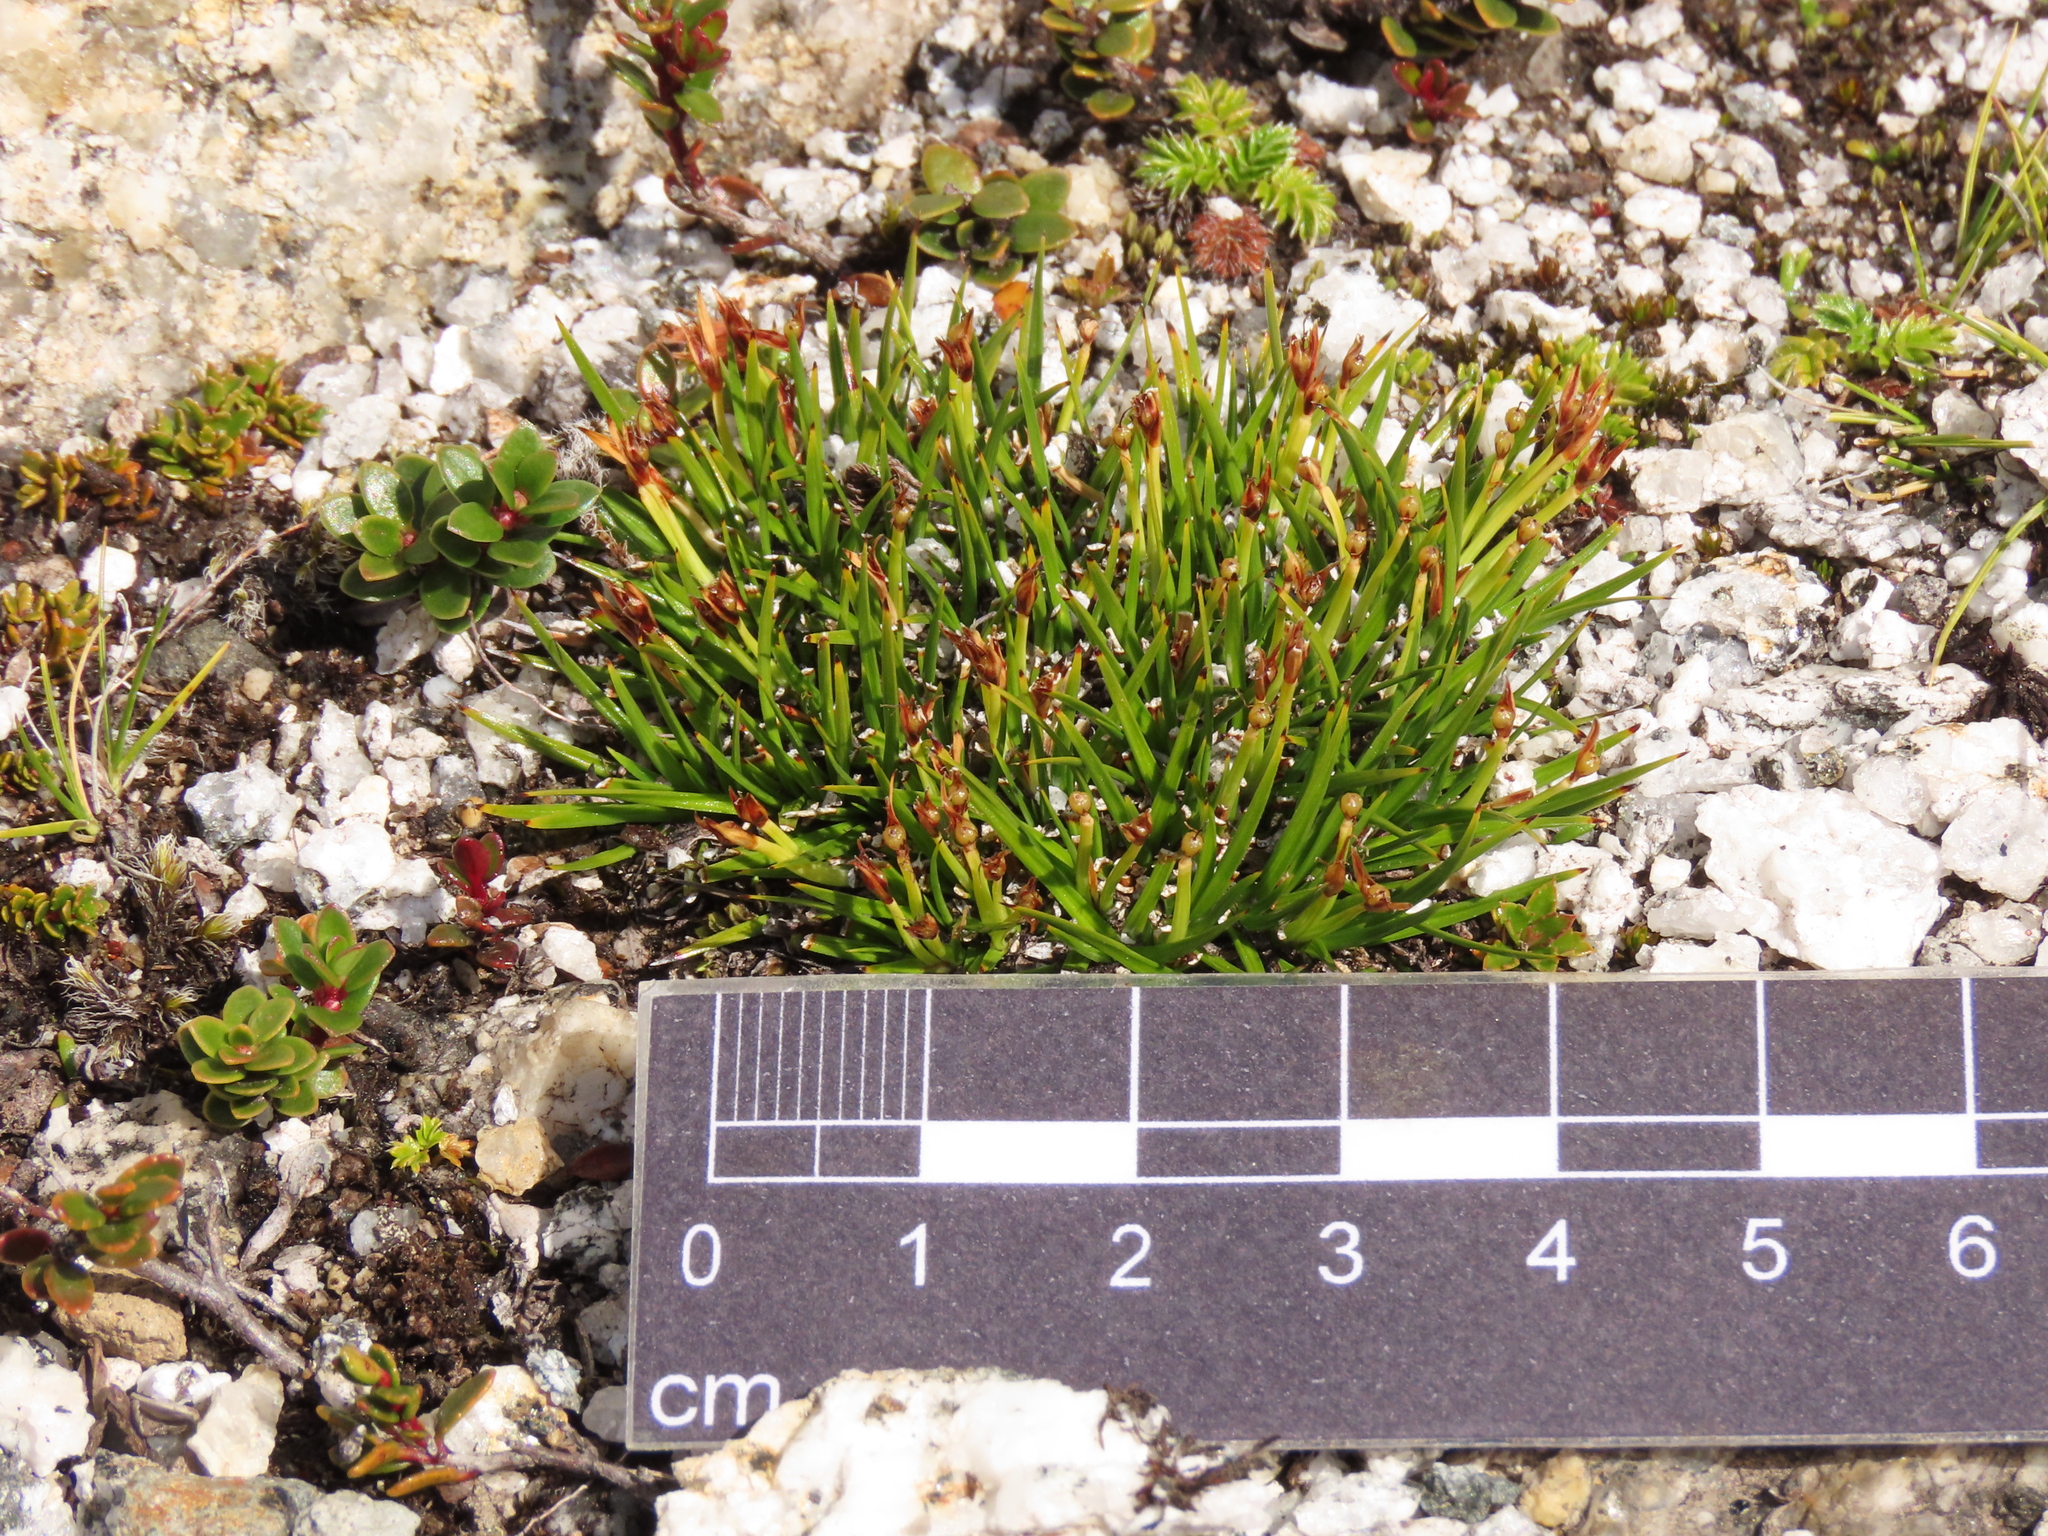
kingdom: Plantae
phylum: Tracheophyta
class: Liliopsida
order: Poales
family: Cyperaceae
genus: Oreobolus
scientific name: Oreobolus obtusangulus
